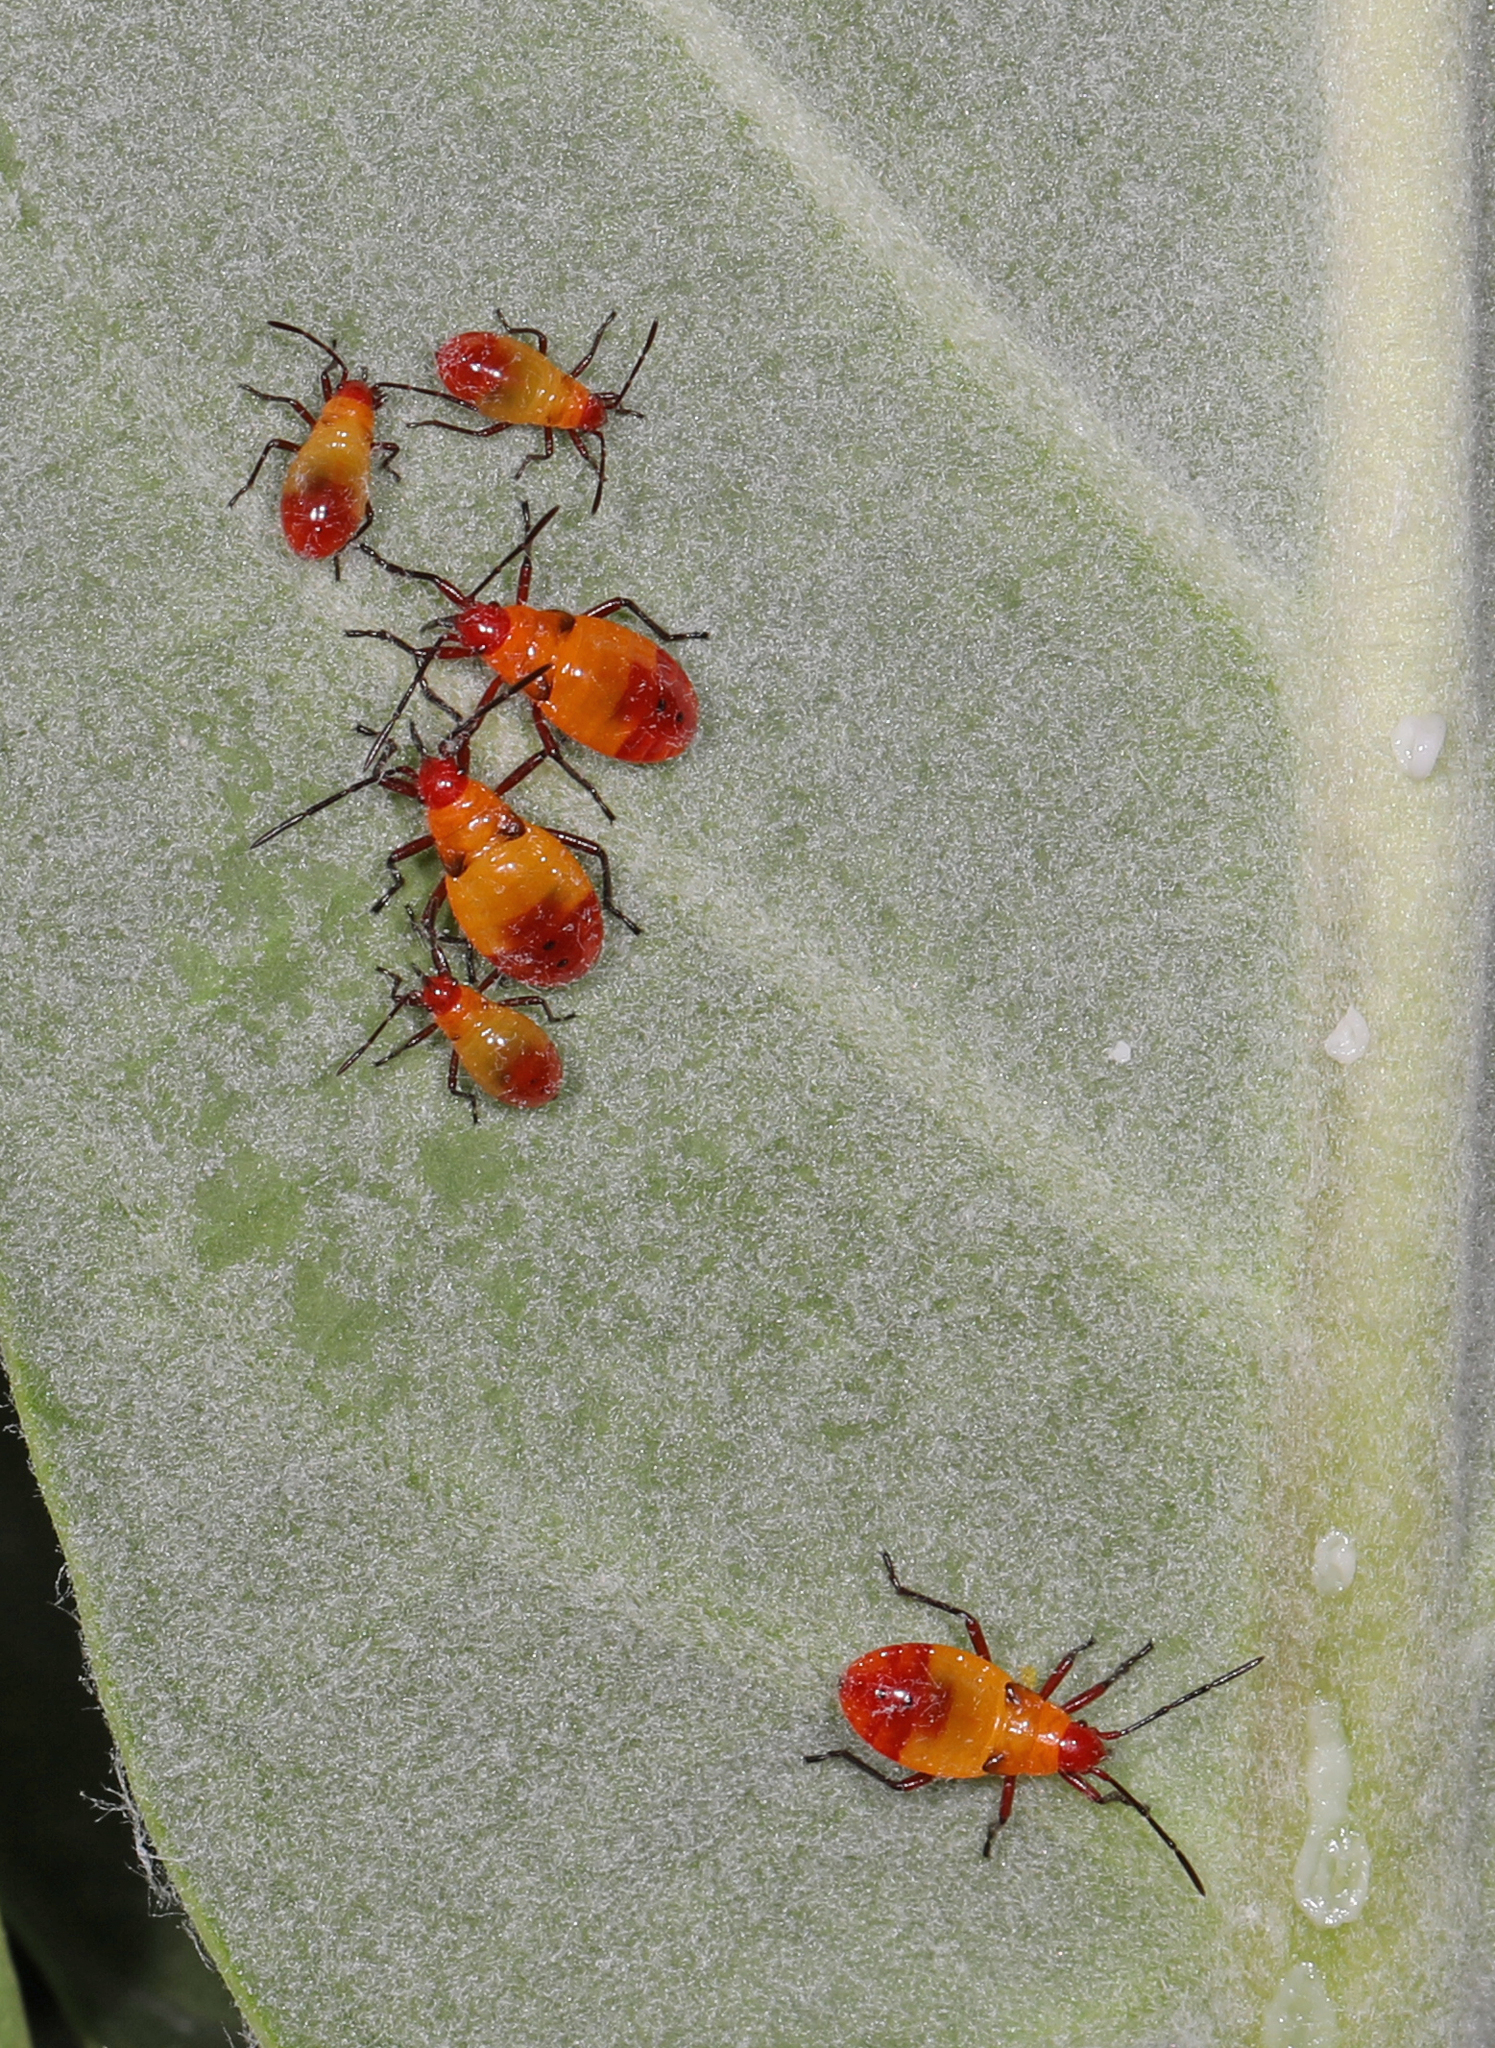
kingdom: Animalia
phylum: Arthropoda
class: Insecta
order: Hemiptera
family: Lygaeidae
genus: Oncopeltus
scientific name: Oncopeltus sexmaculatus
